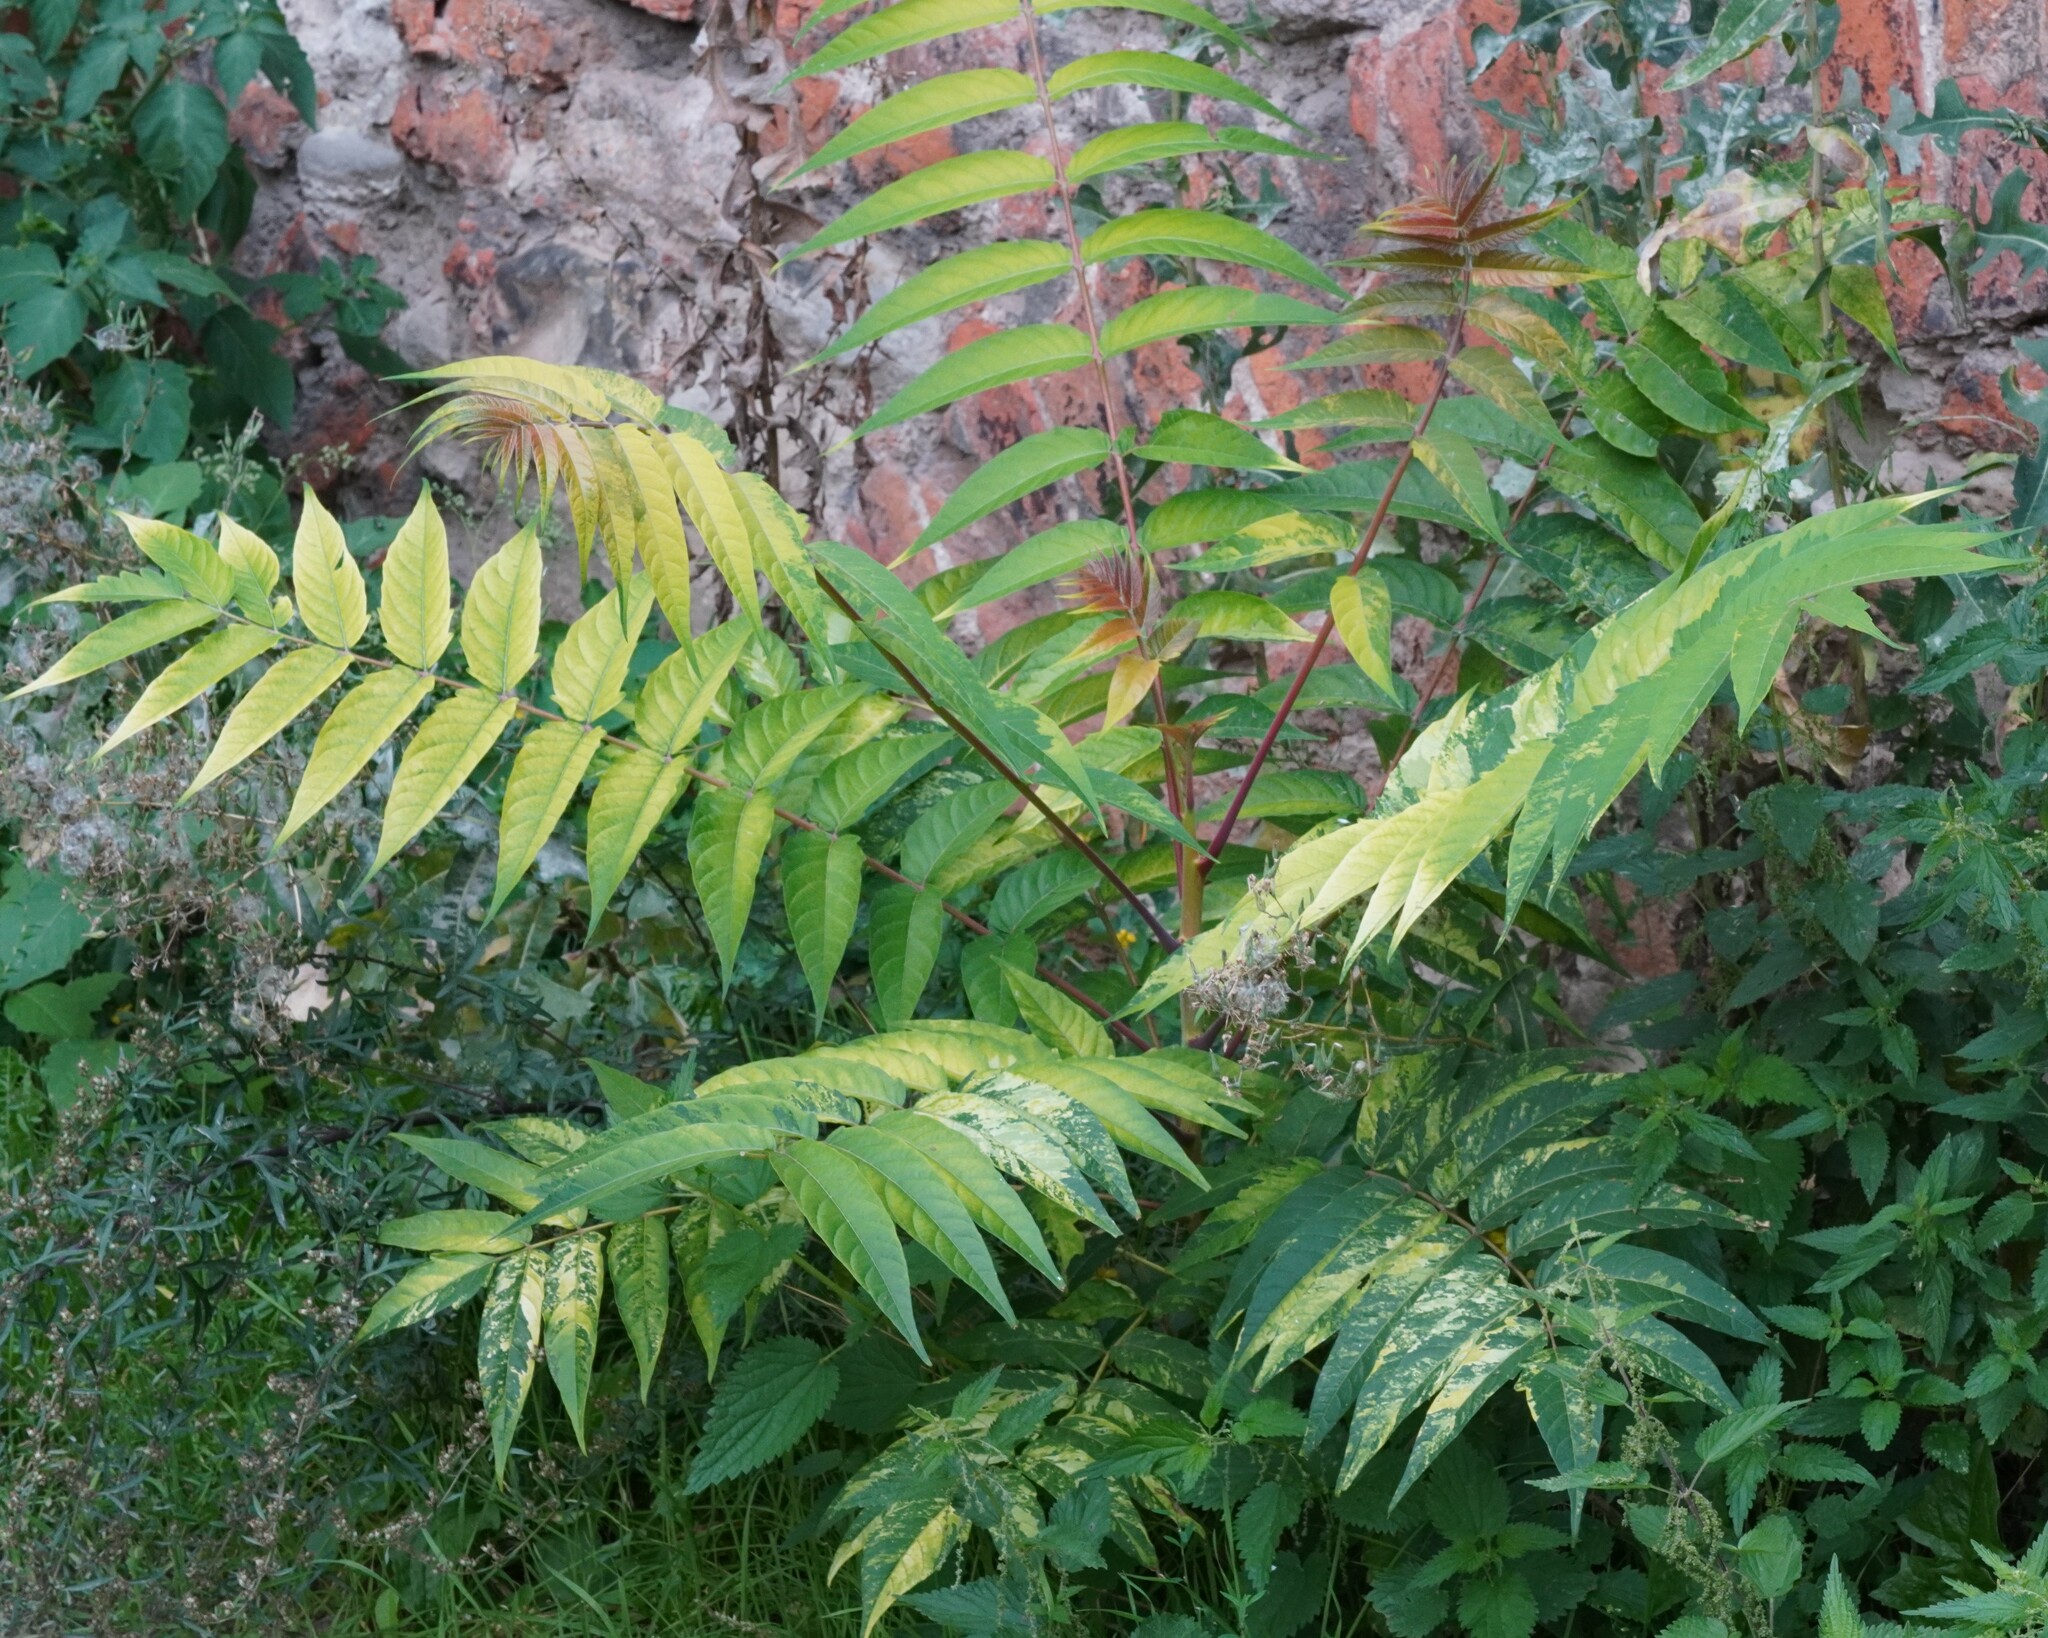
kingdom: Plantae
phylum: Tracheophyta
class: Magnoliopsida
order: Sapindales
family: Simaroubaceae
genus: Ailanthus
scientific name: Ailanthus altissima
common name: Tree-of-heaven
